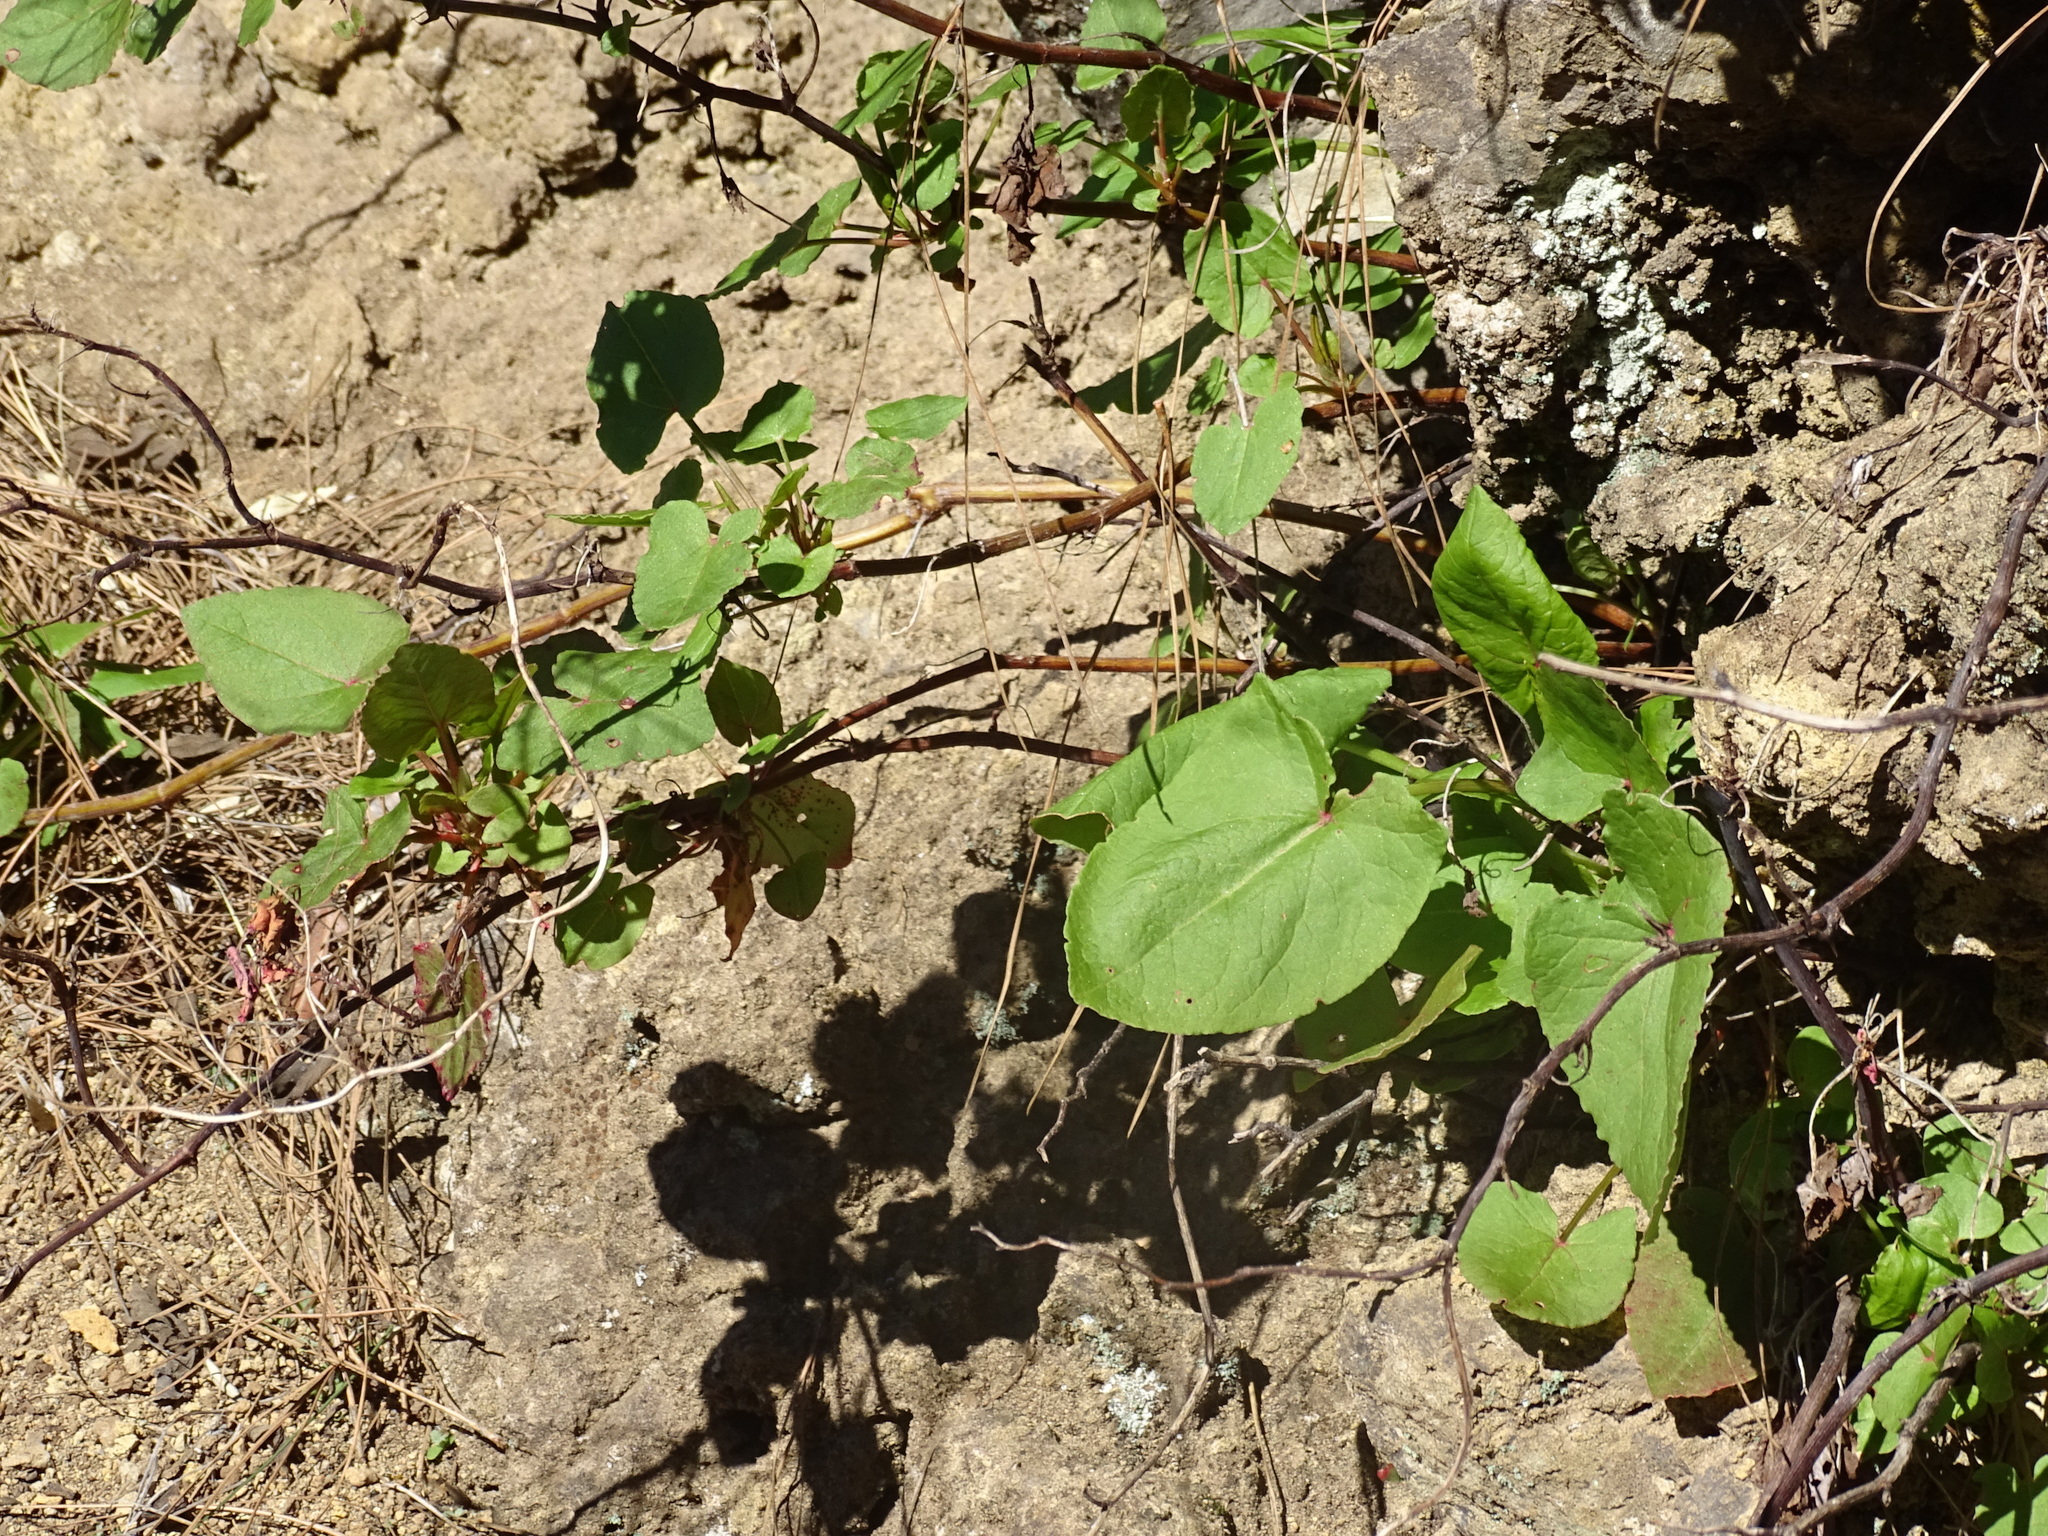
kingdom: Plantae
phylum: Tracheophyta
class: Magnoliopsida
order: Caryophyllales
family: Polygonaceae
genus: Rumex
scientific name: Rumex maderensis
